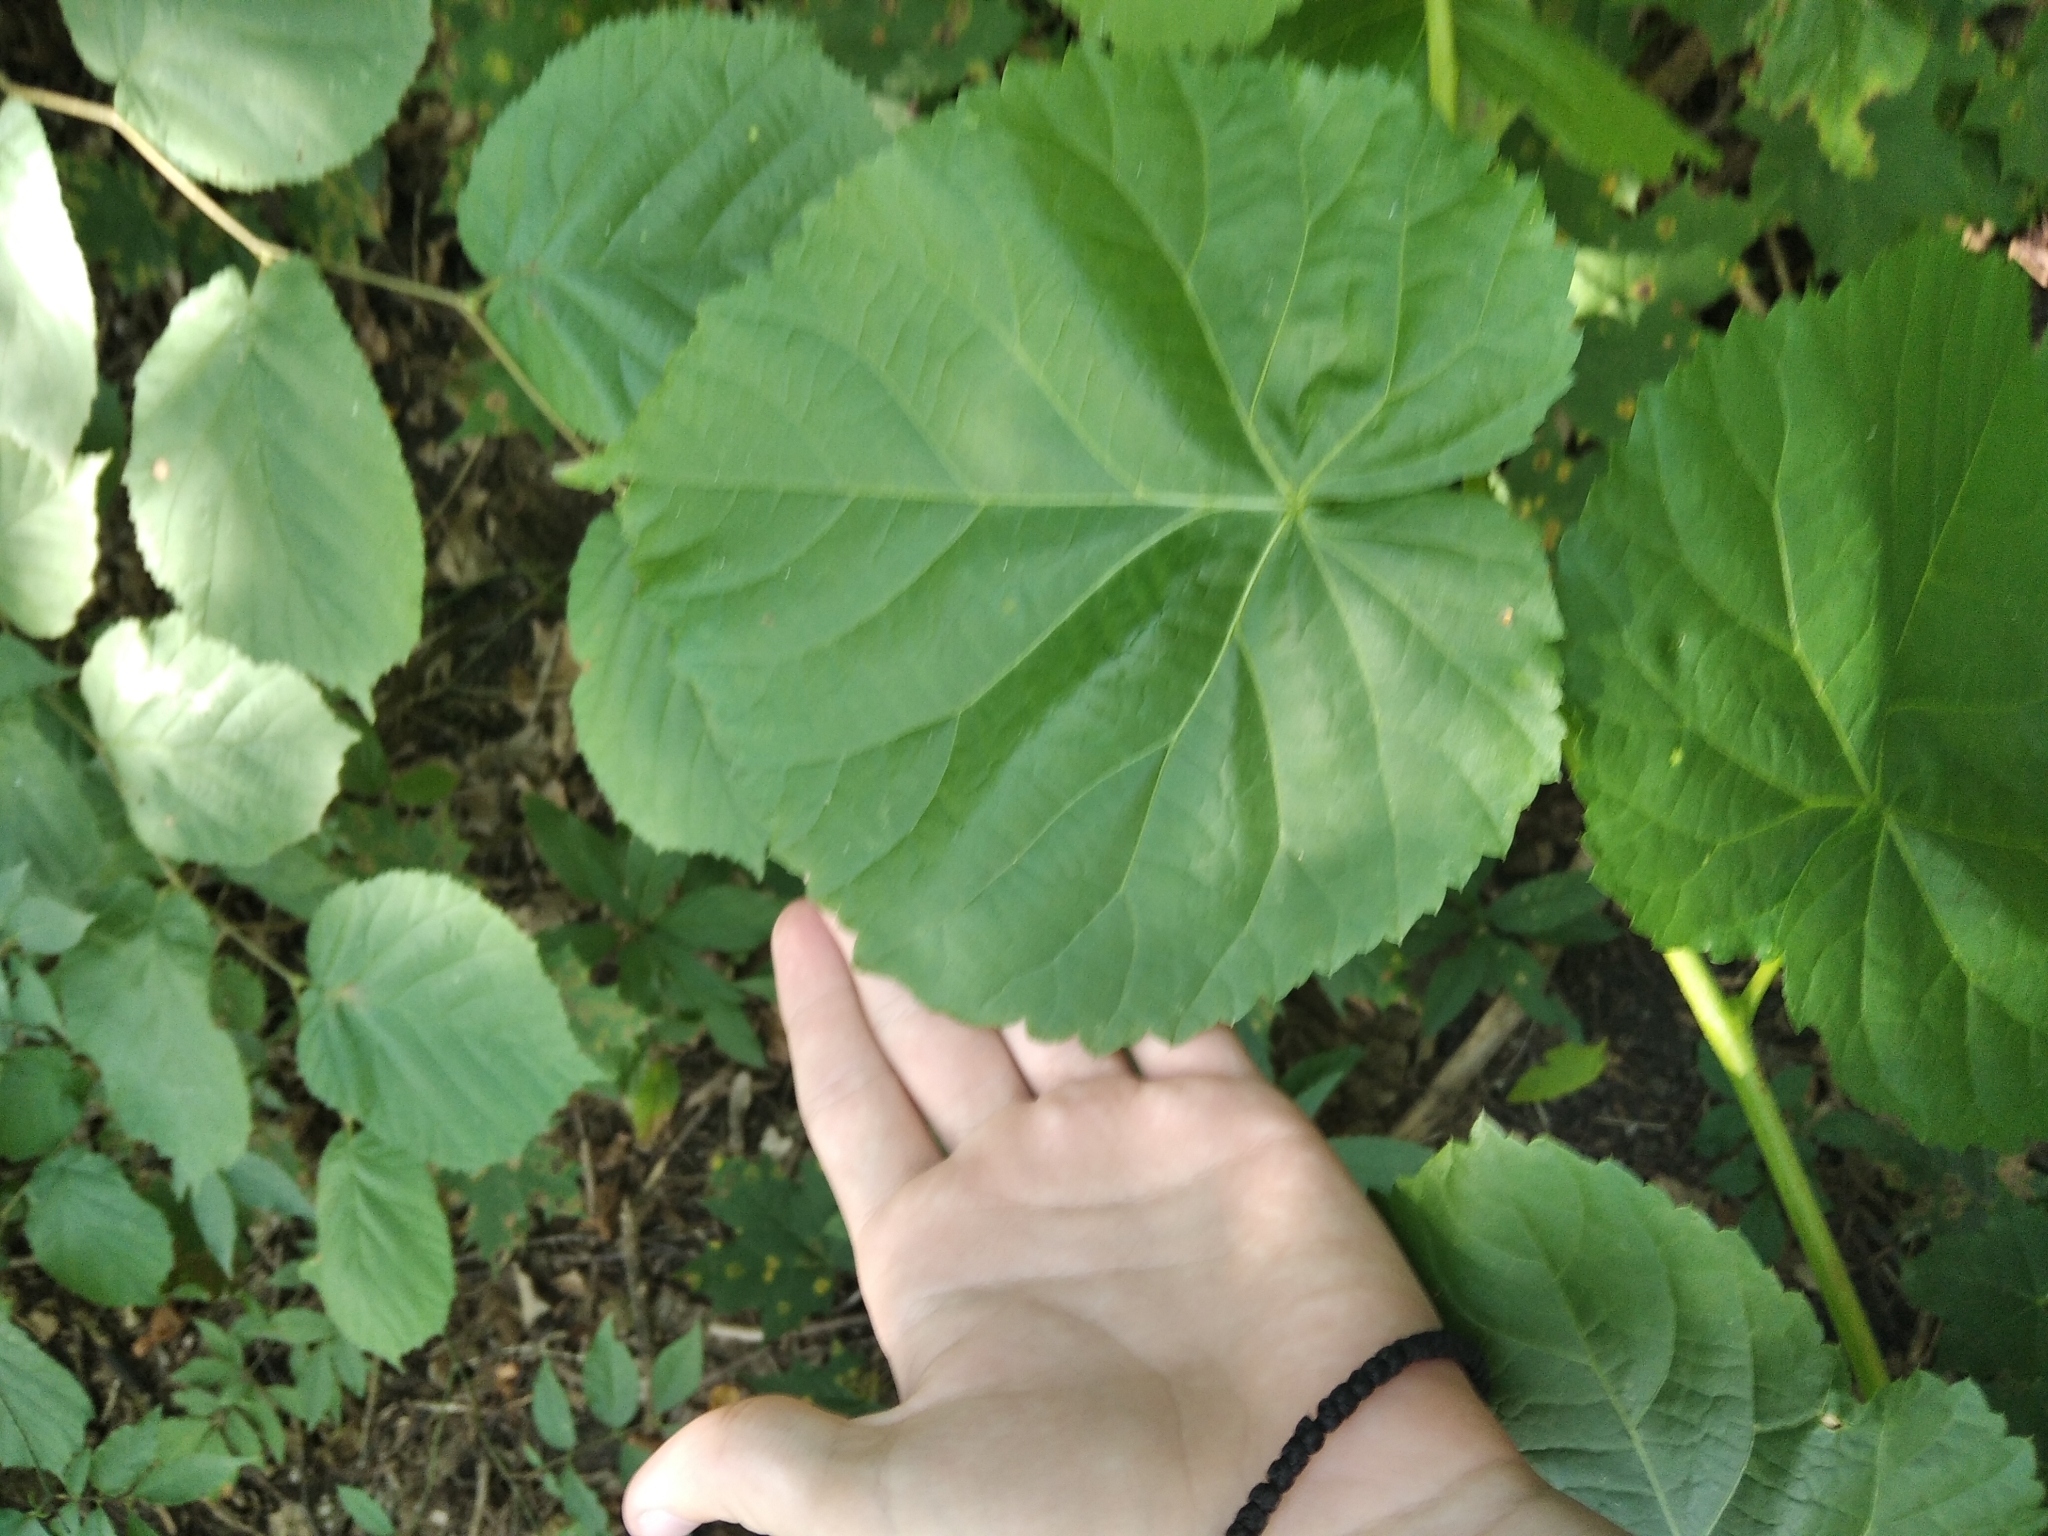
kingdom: Plantae
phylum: Tracheophyta
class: Magnoliopsida
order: Malvales
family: Malvaceae
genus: Tilia
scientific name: Tilia cordata
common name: Small-leaved lime
